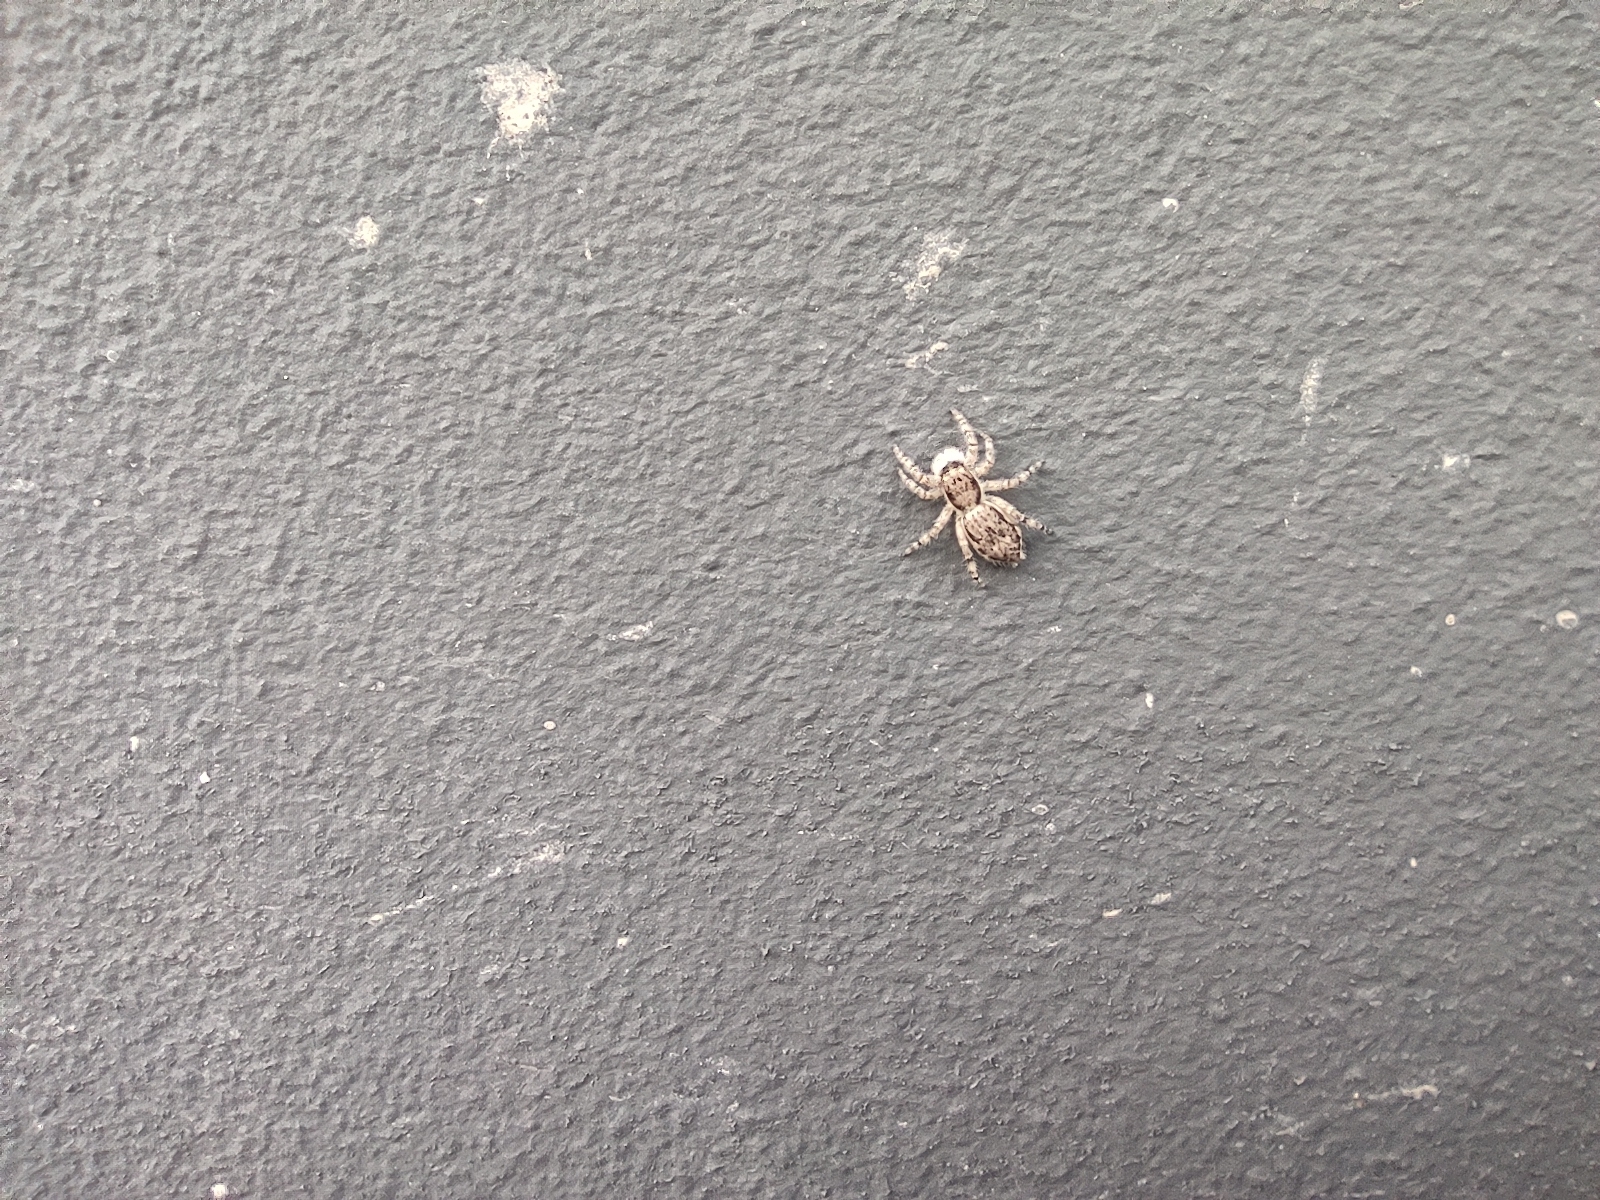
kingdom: Animalia
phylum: Arthropoda
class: Arachnida
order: Araneae
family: Salticidae
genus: Menemerus
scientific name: Menemerus bivittatus
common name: Gray wall jumper
